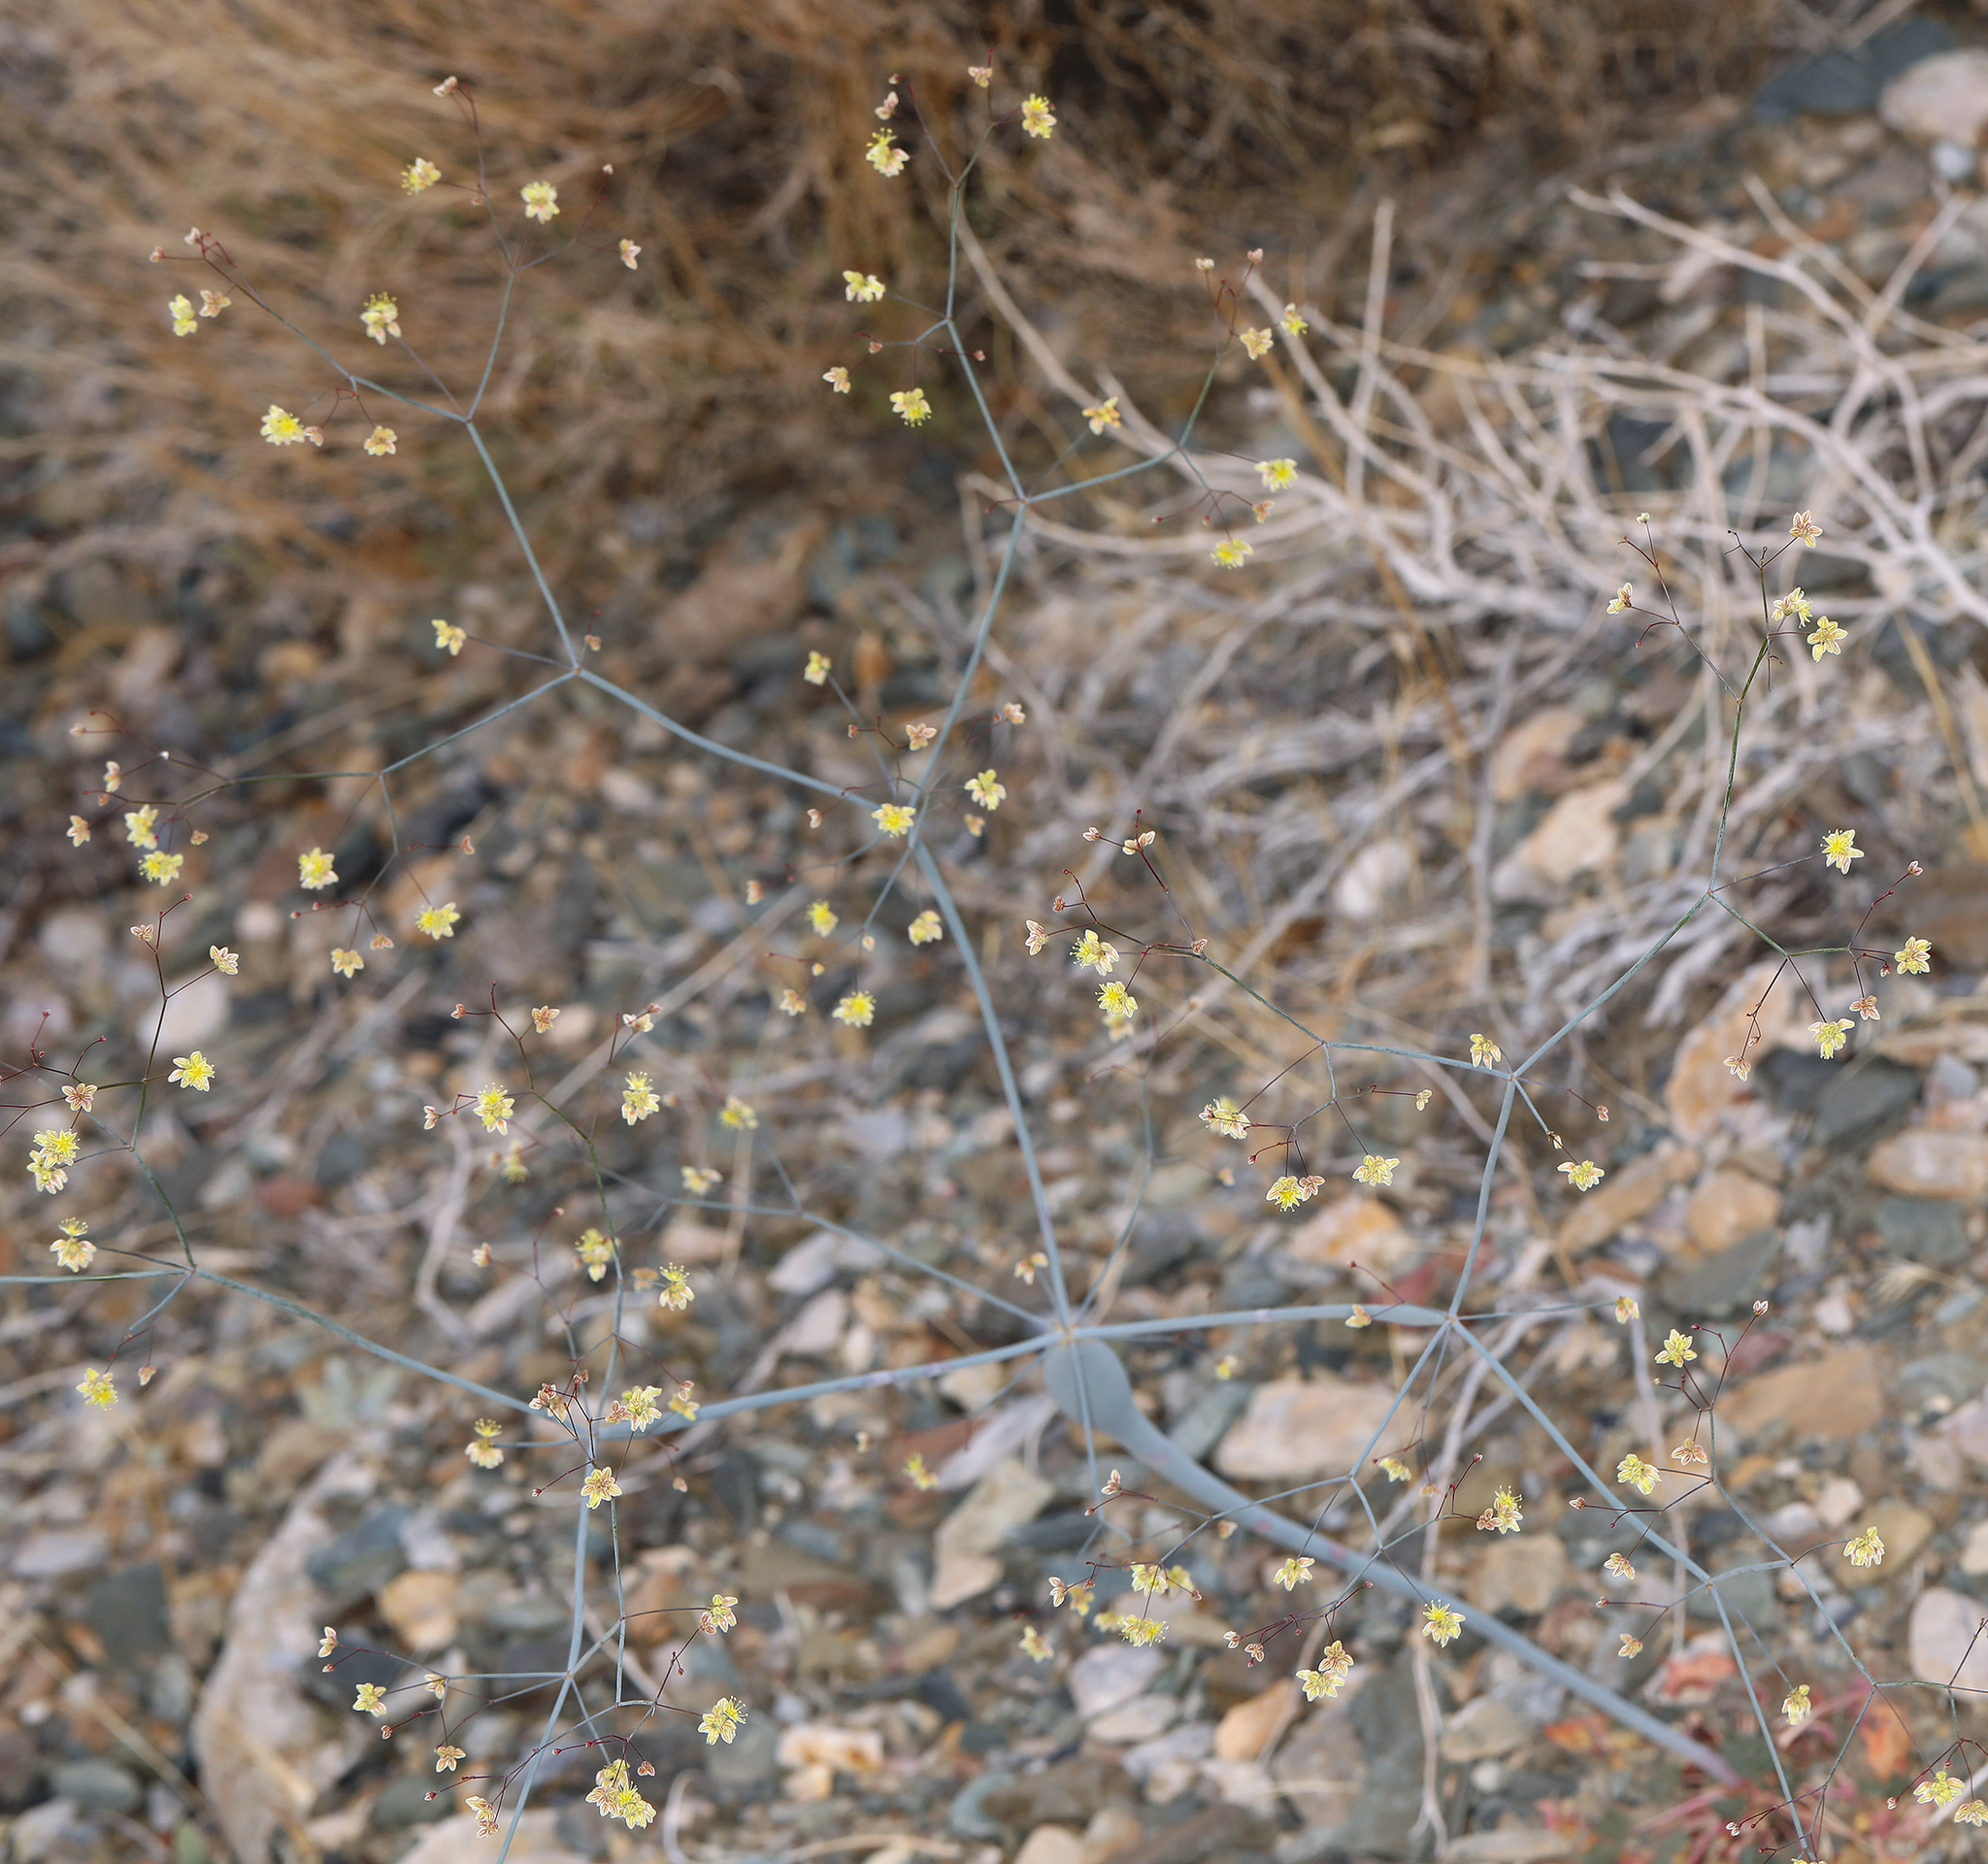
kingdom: Plantae
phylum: Tracheophyta
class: Magnoliopsida
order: Caryophyllales
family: Polygonaceae
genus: Eriogonum
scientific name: Eriogonum inflatum
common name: Desert trumpet
